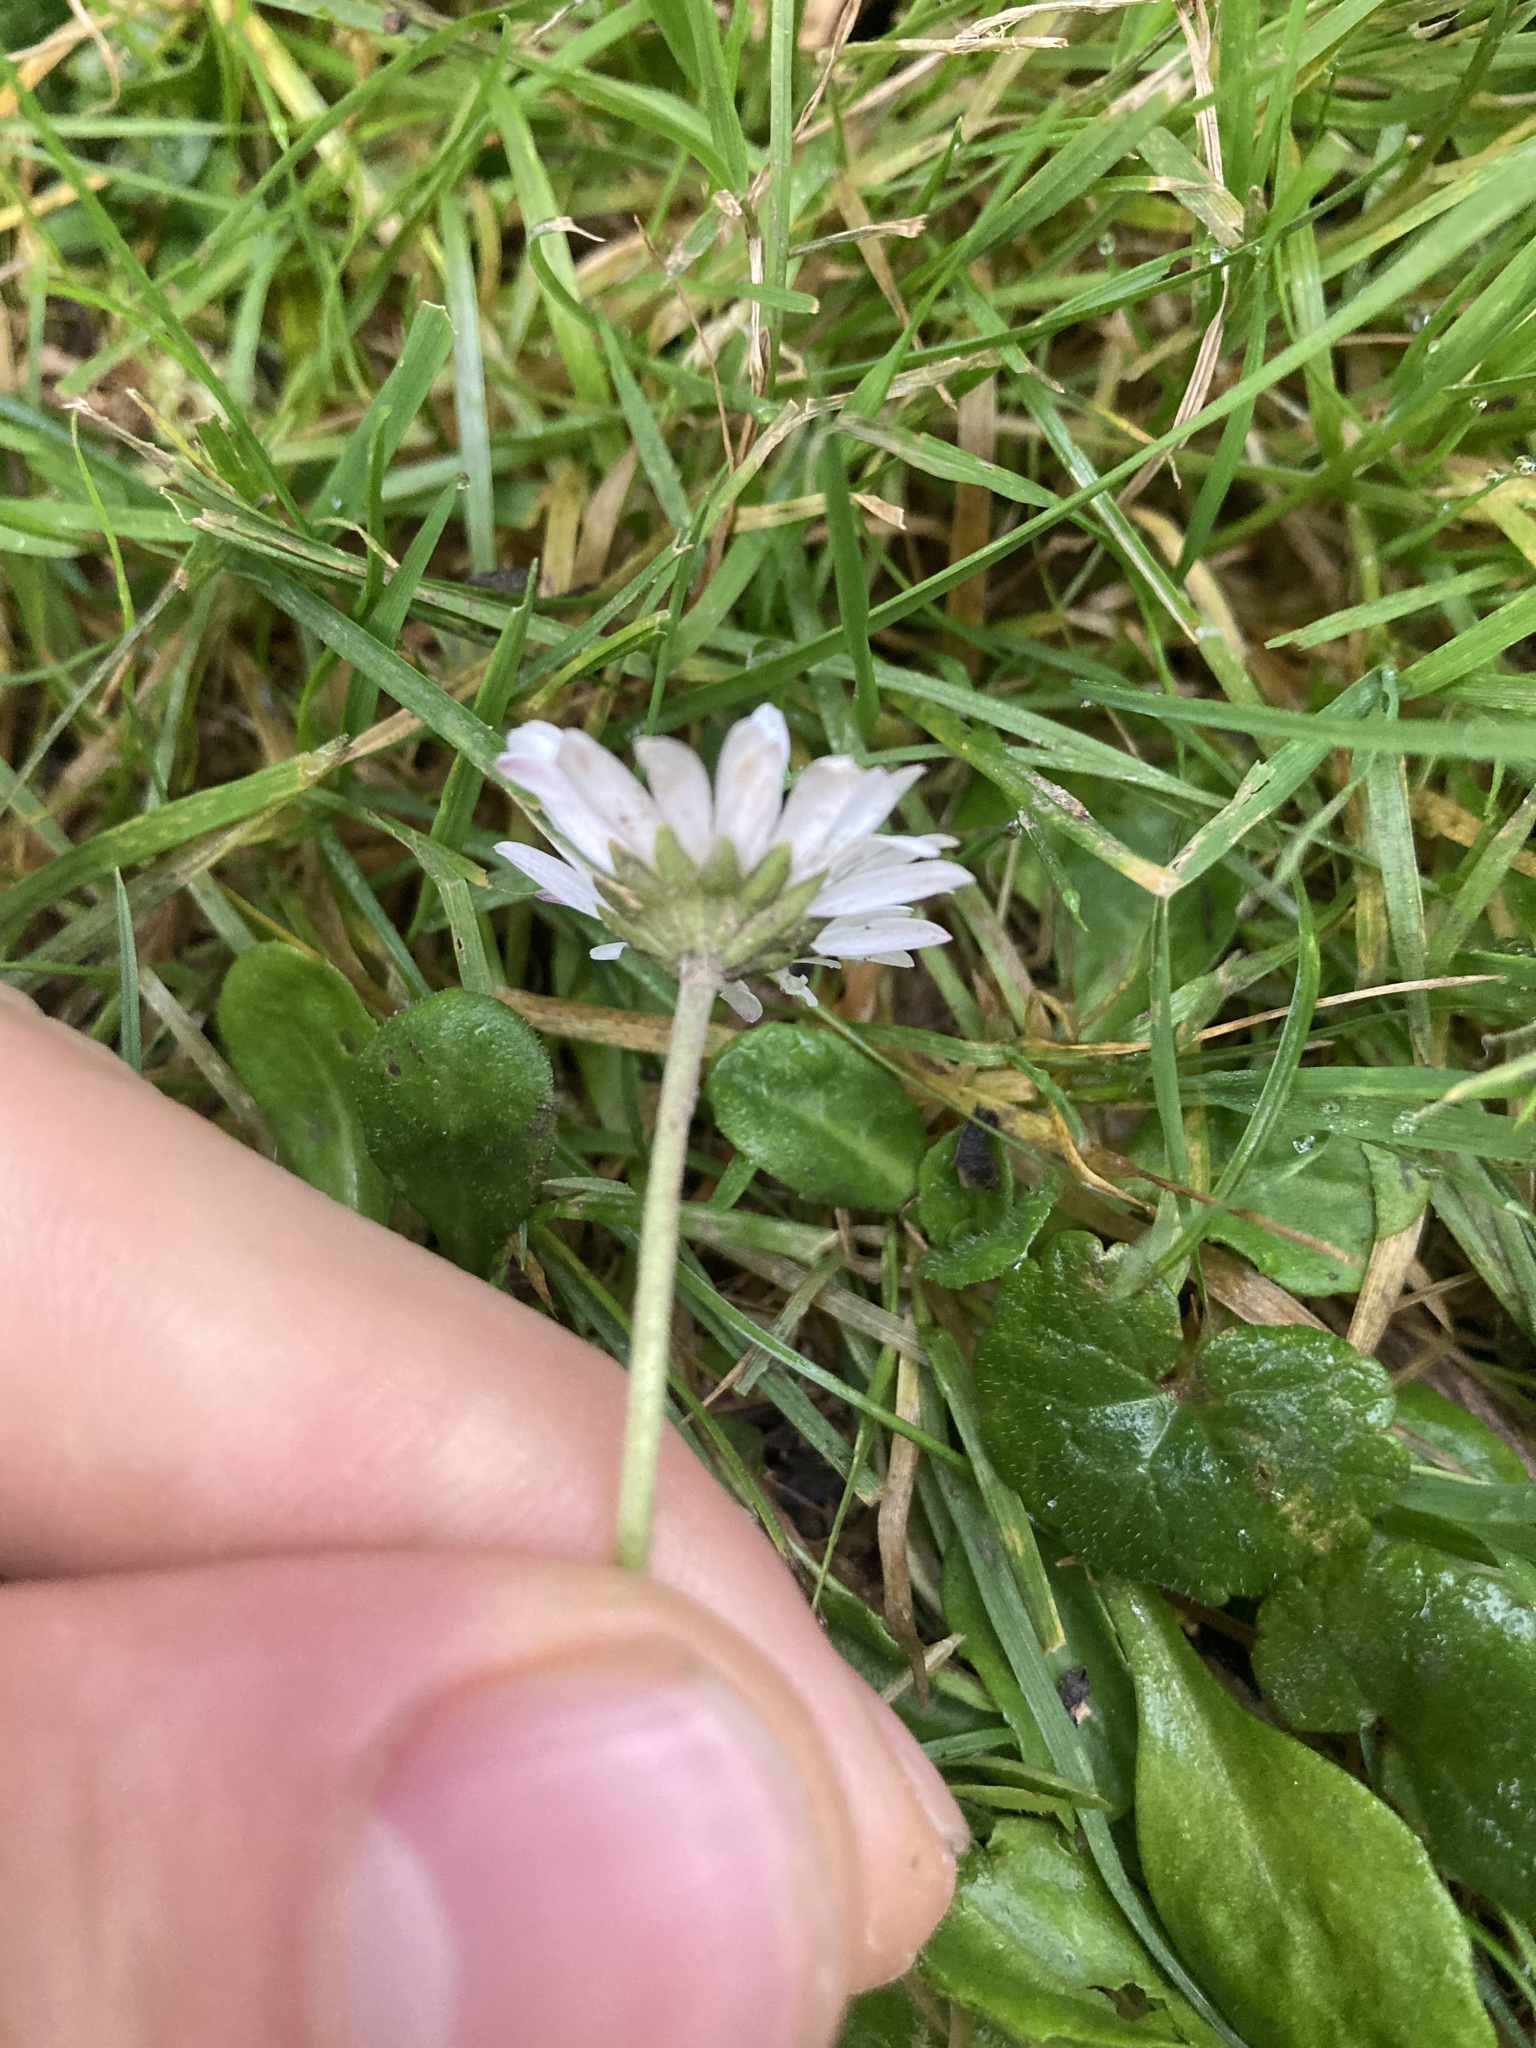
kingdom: Plantae
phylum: Tracheophyta
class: Magnoliopsida
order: Asterales
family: Asteraceae
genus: Bellis
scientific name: Bellis perennis
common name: Lawndaisy
